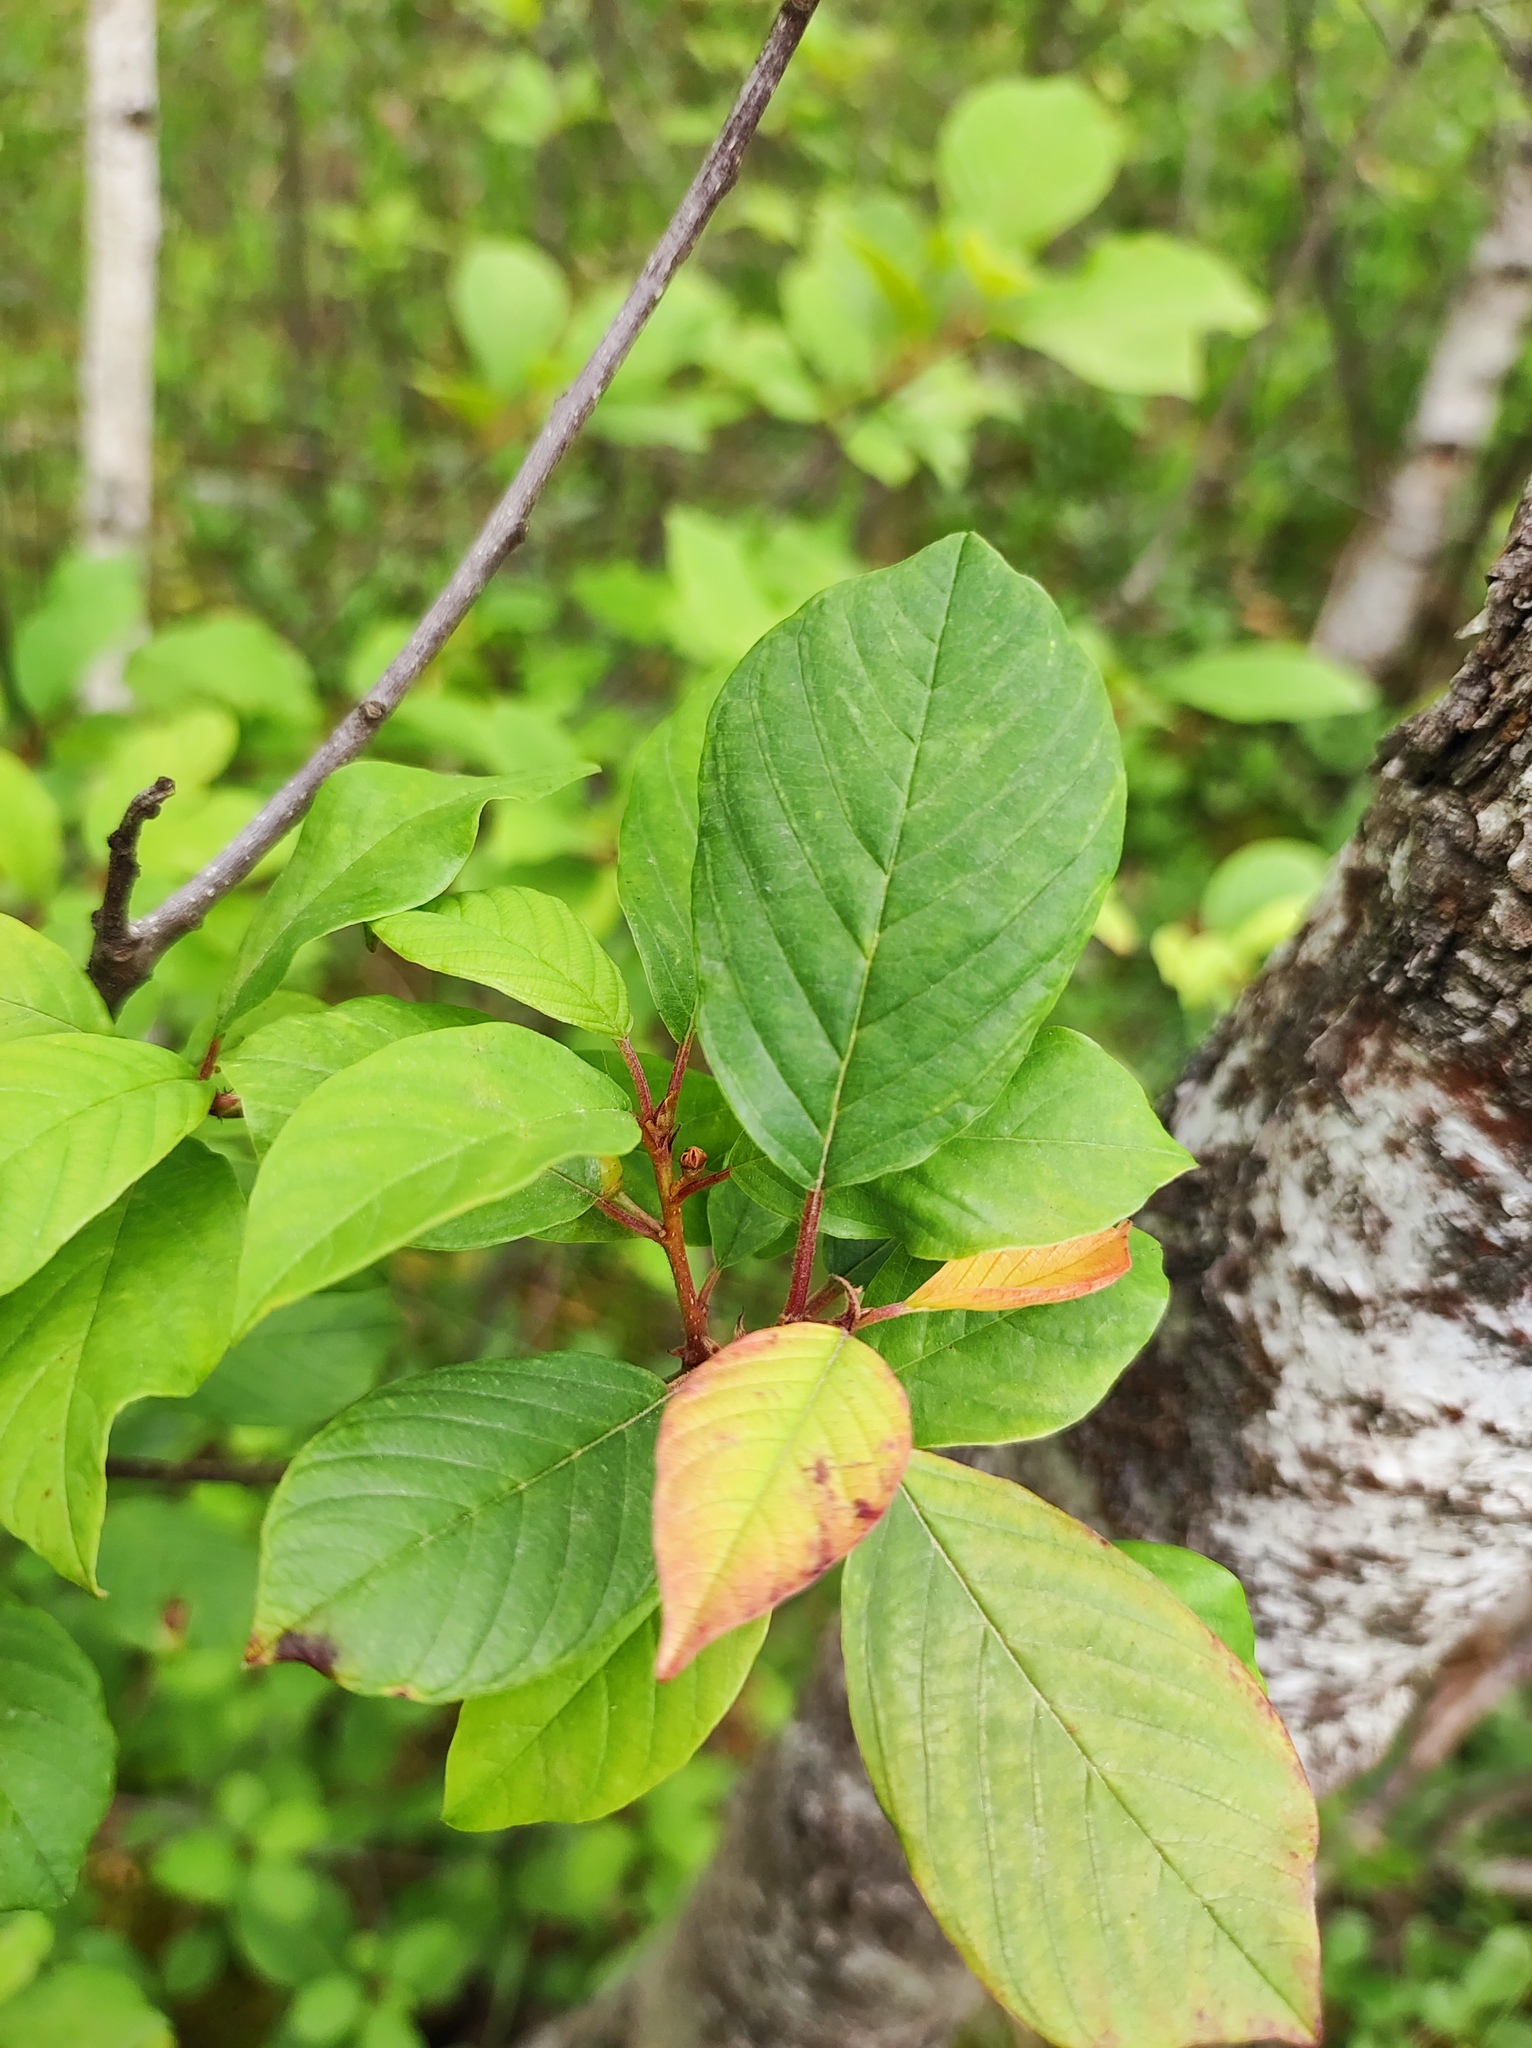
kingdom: Plantae
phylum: Tracheophyta
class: Magnoliopsida
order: Rosales
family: Rhamnaceae
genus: Frangula
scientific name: Frangula alnus
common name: Alder buckthorn
